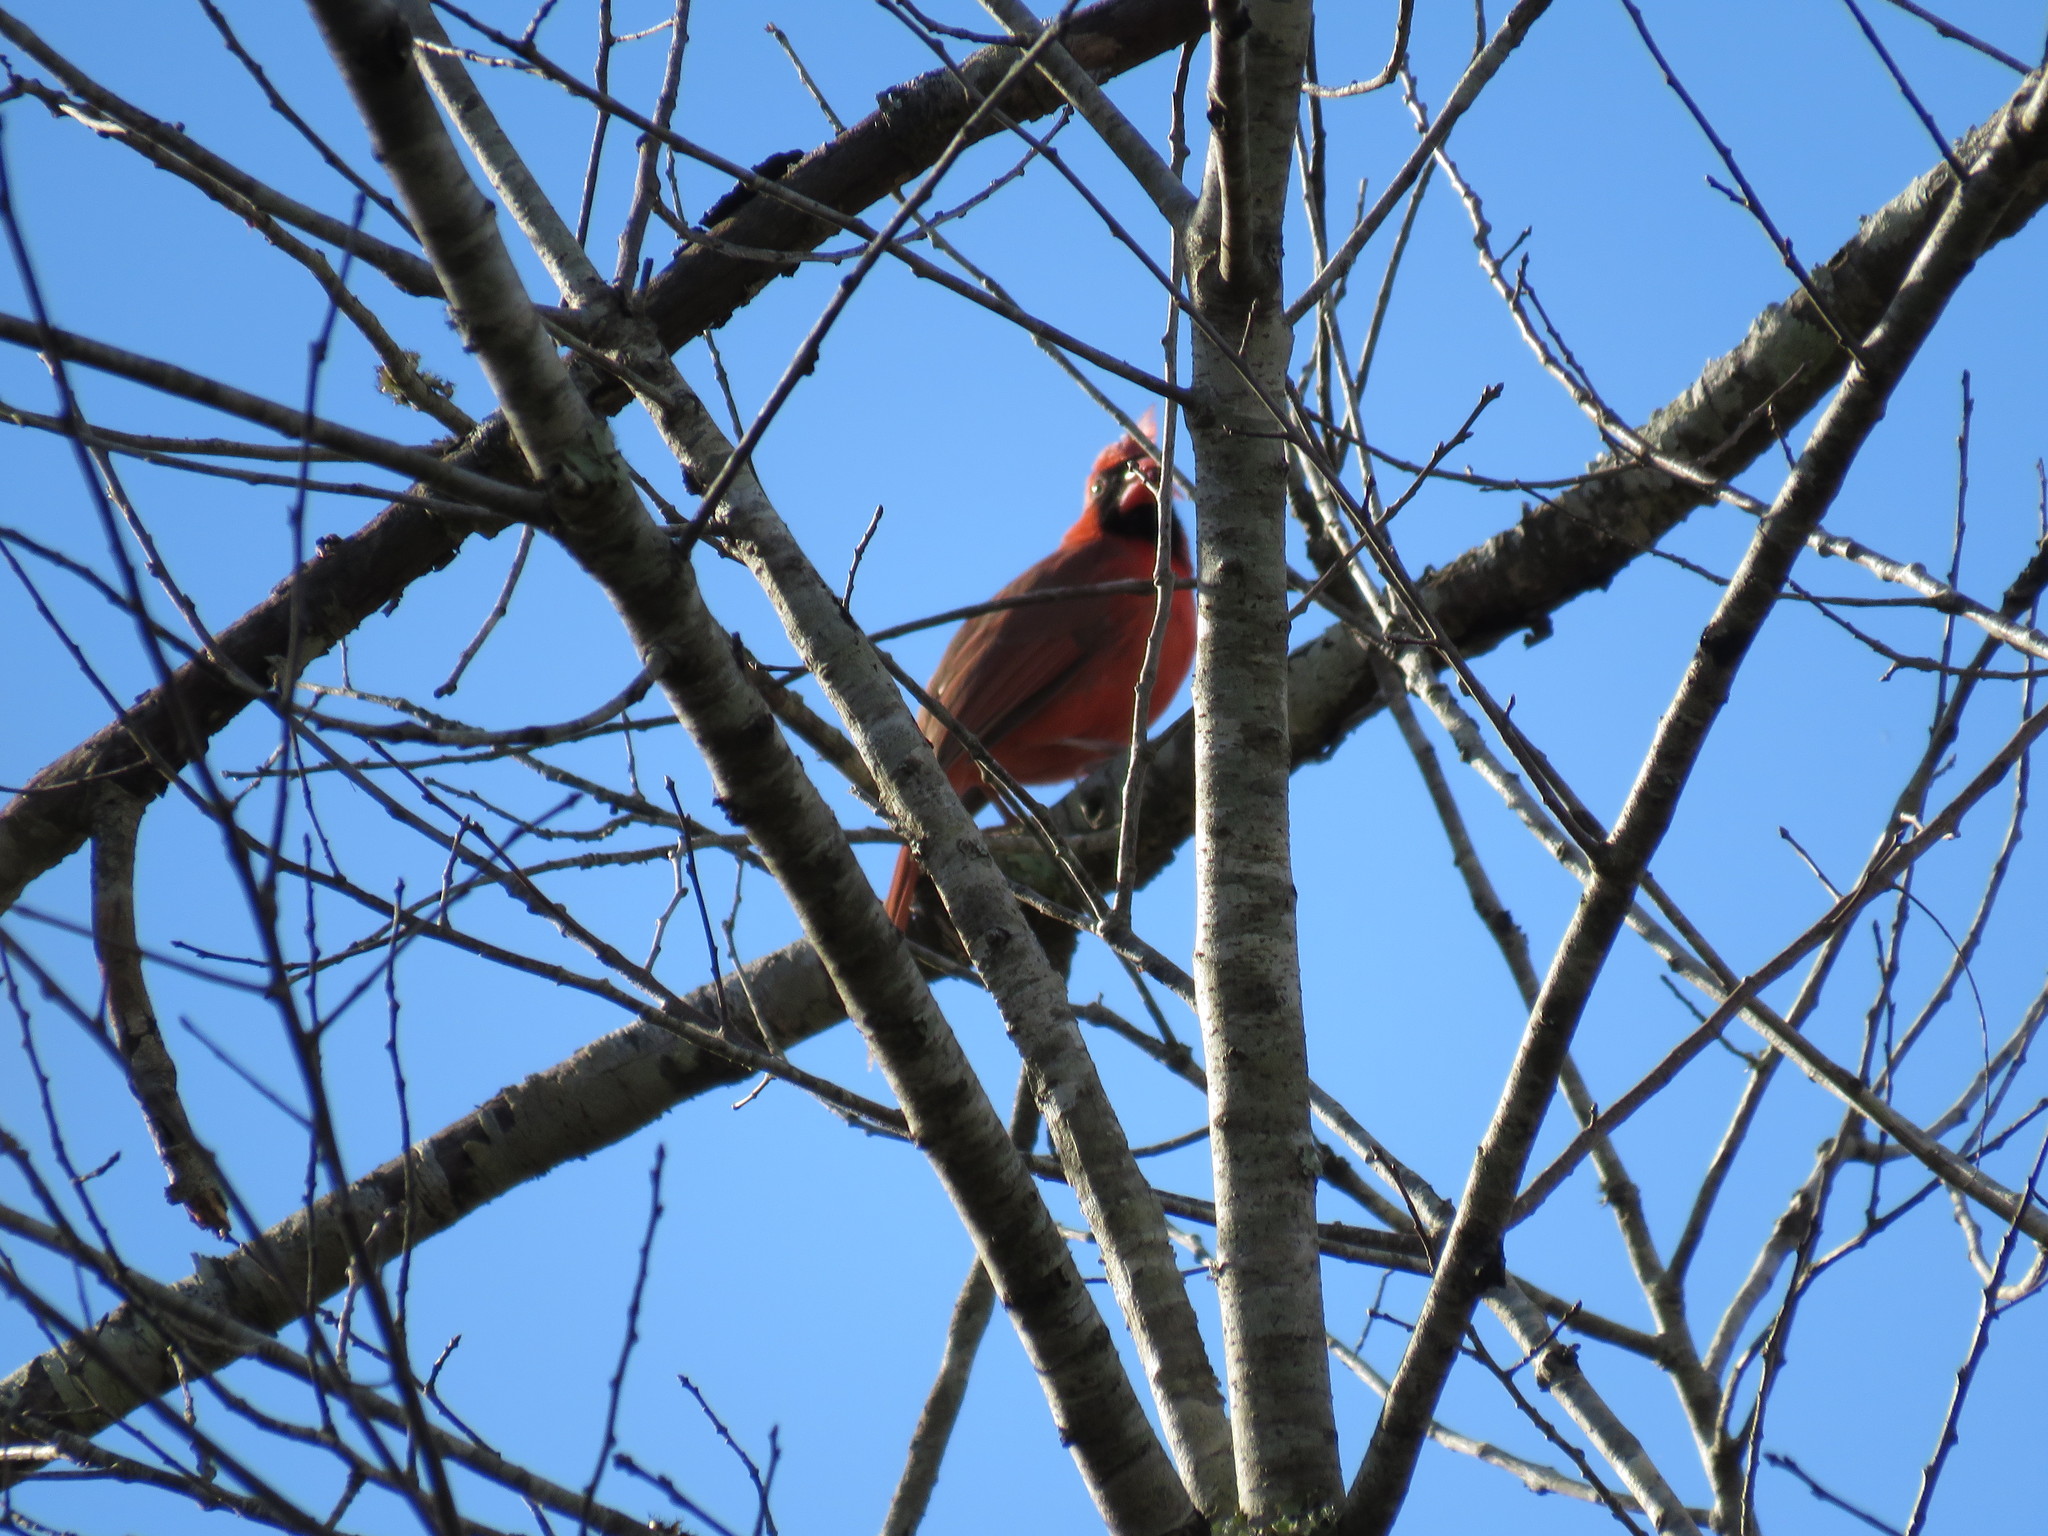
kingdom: Animalia
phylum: Chordata
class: Aves
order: Passeriformes
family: Cardinalidae
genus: Cardinalis
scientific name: Cardinalis cardinalis
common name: Northern cardinal
